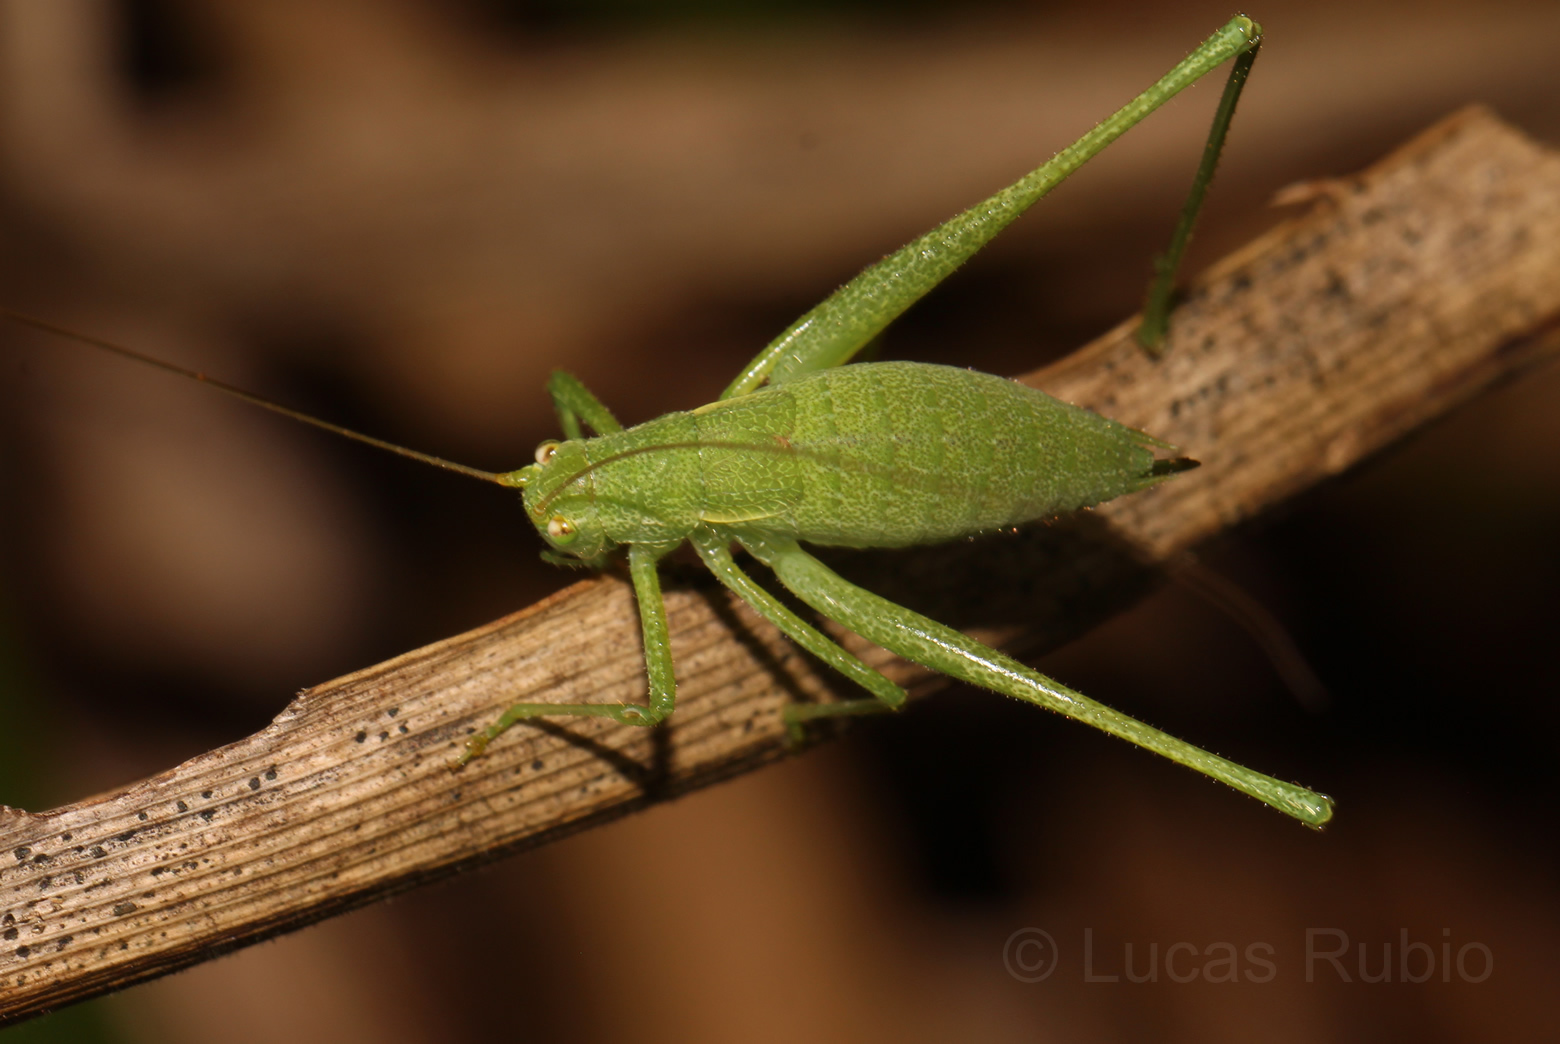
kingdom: Animalia
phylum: Arthropoda
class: Insecta
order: Orthoptera
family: Tettigoniidae
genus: Anisophya
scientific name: Anisophya punctinervis
